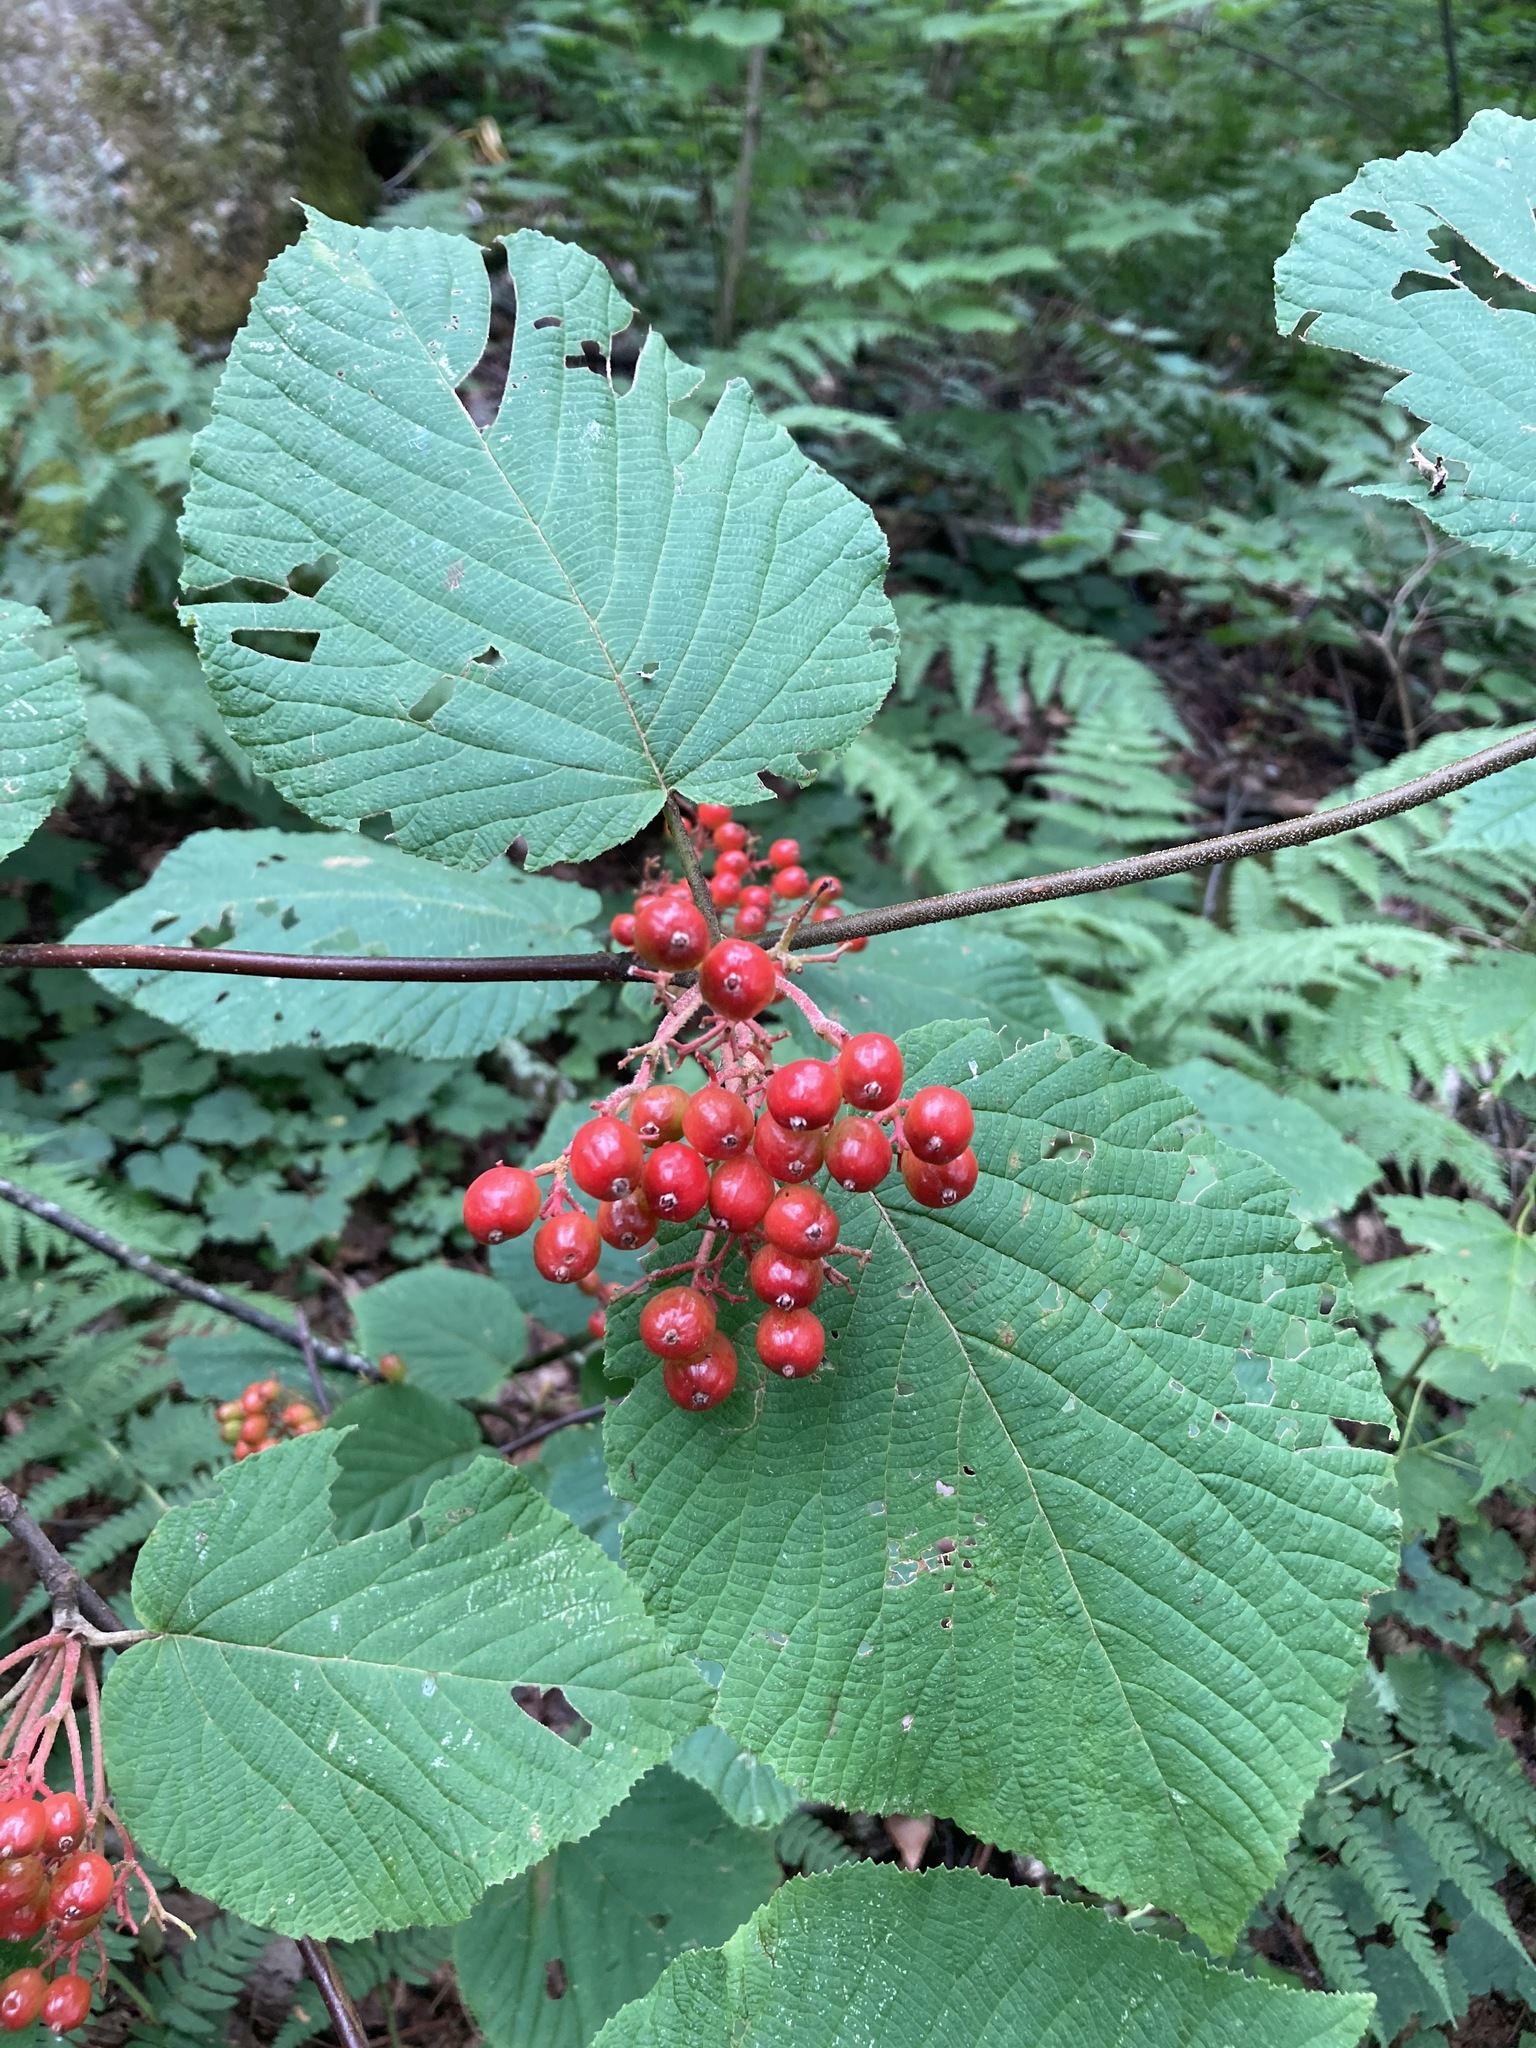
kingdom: Plantae
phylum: Tracheophyta
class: Magnoliopsida
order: Dipsacales
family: Viburnaceae
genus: Viburnum
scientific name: Viburnum lantanoides
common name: Hobblebush
